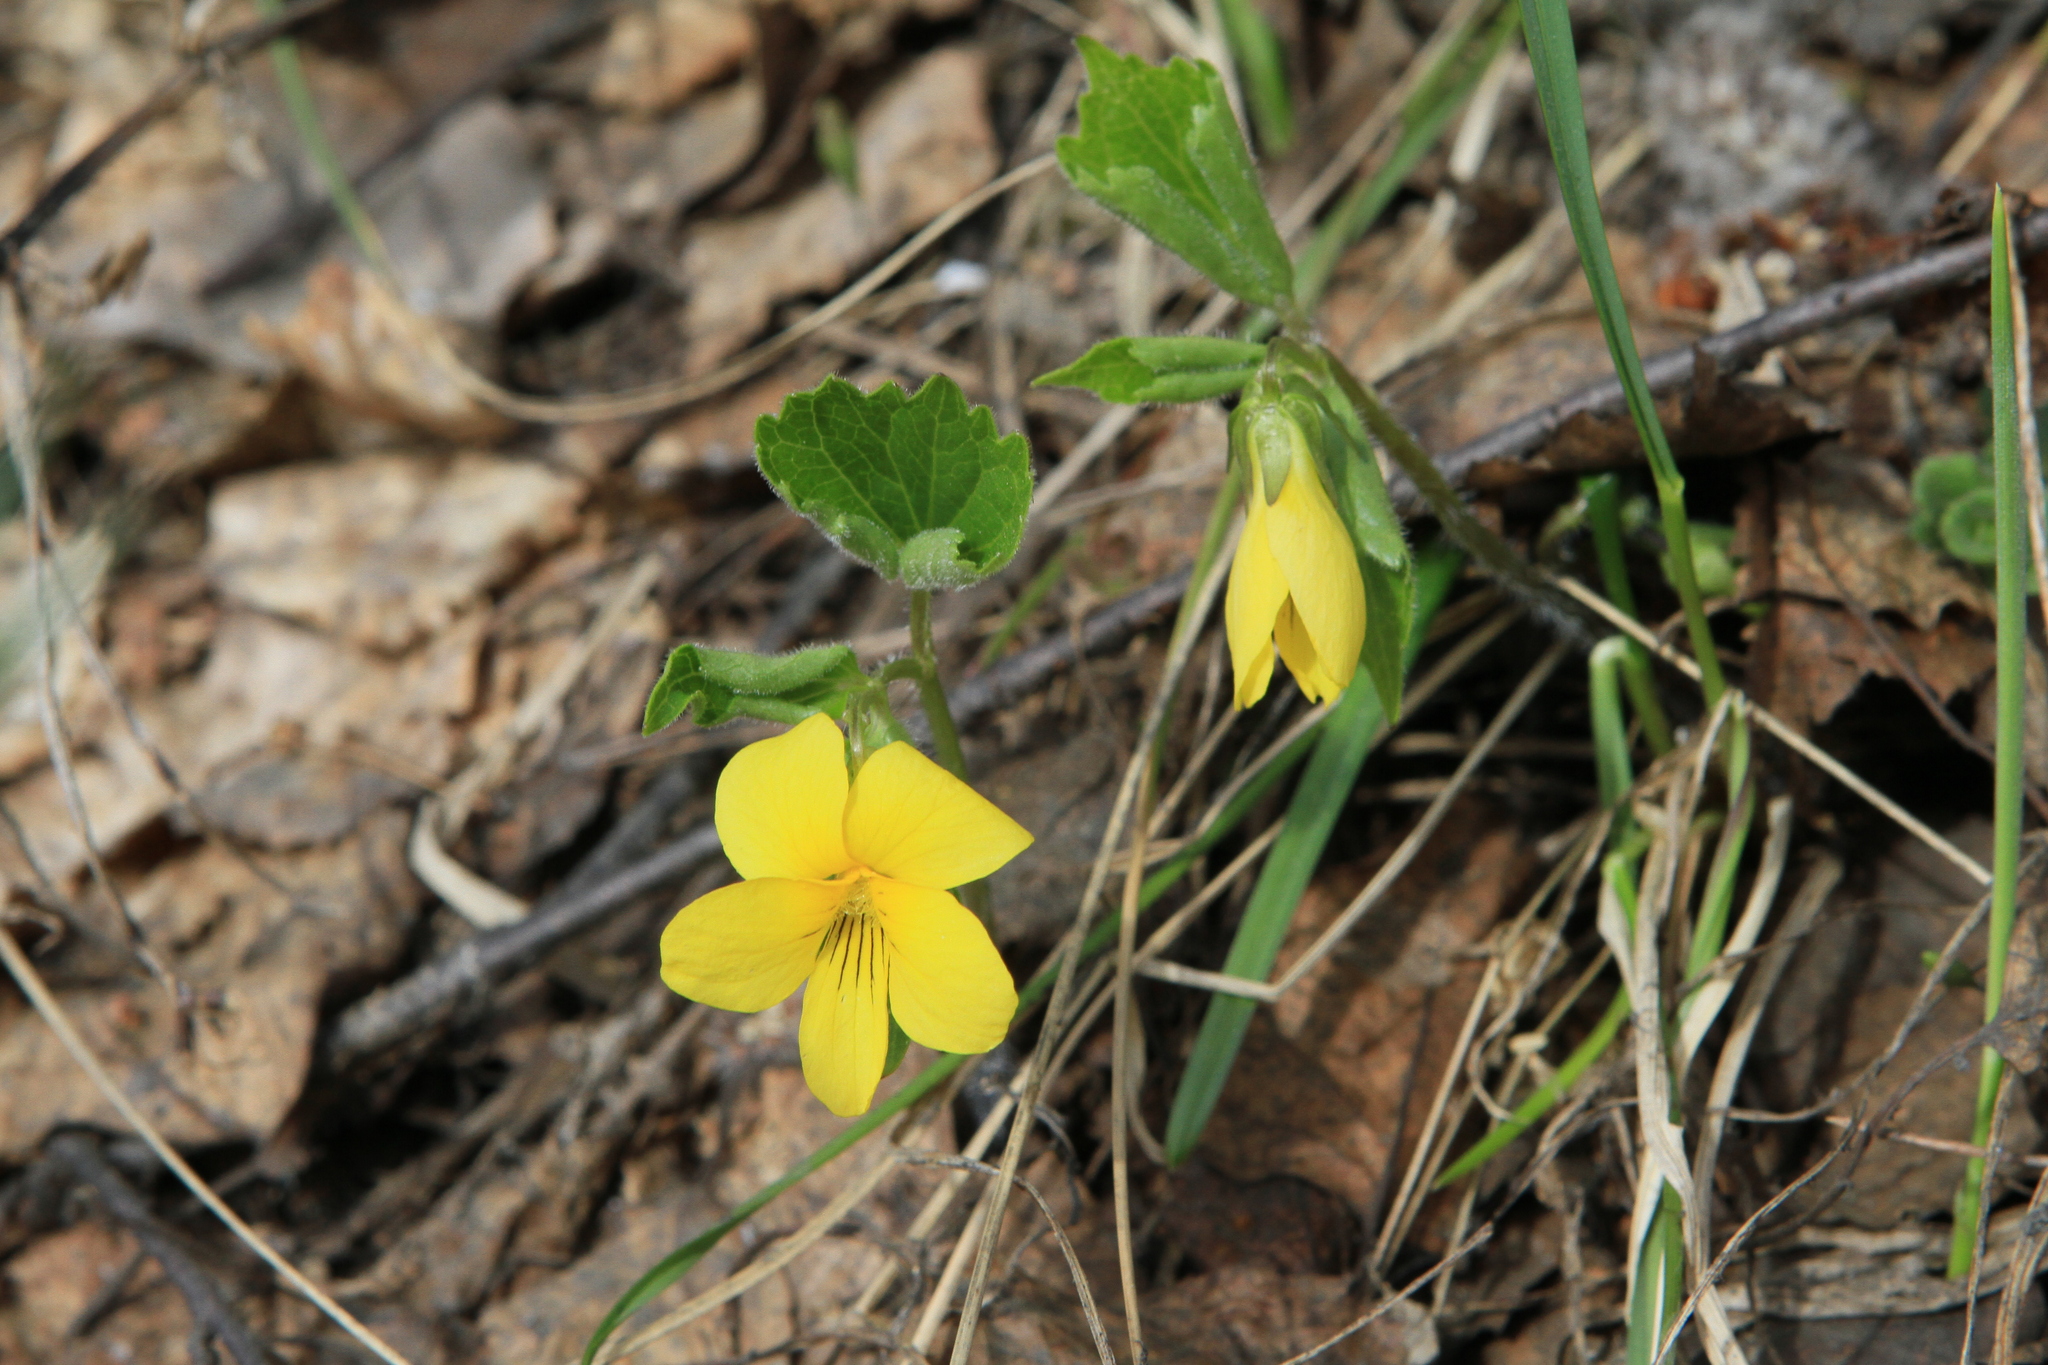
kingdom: Plantae
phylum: Tracheophyta
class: Magnoliopsida
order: Malpighiales
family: Violaceae
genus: Viola
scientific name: Viola uniflora
